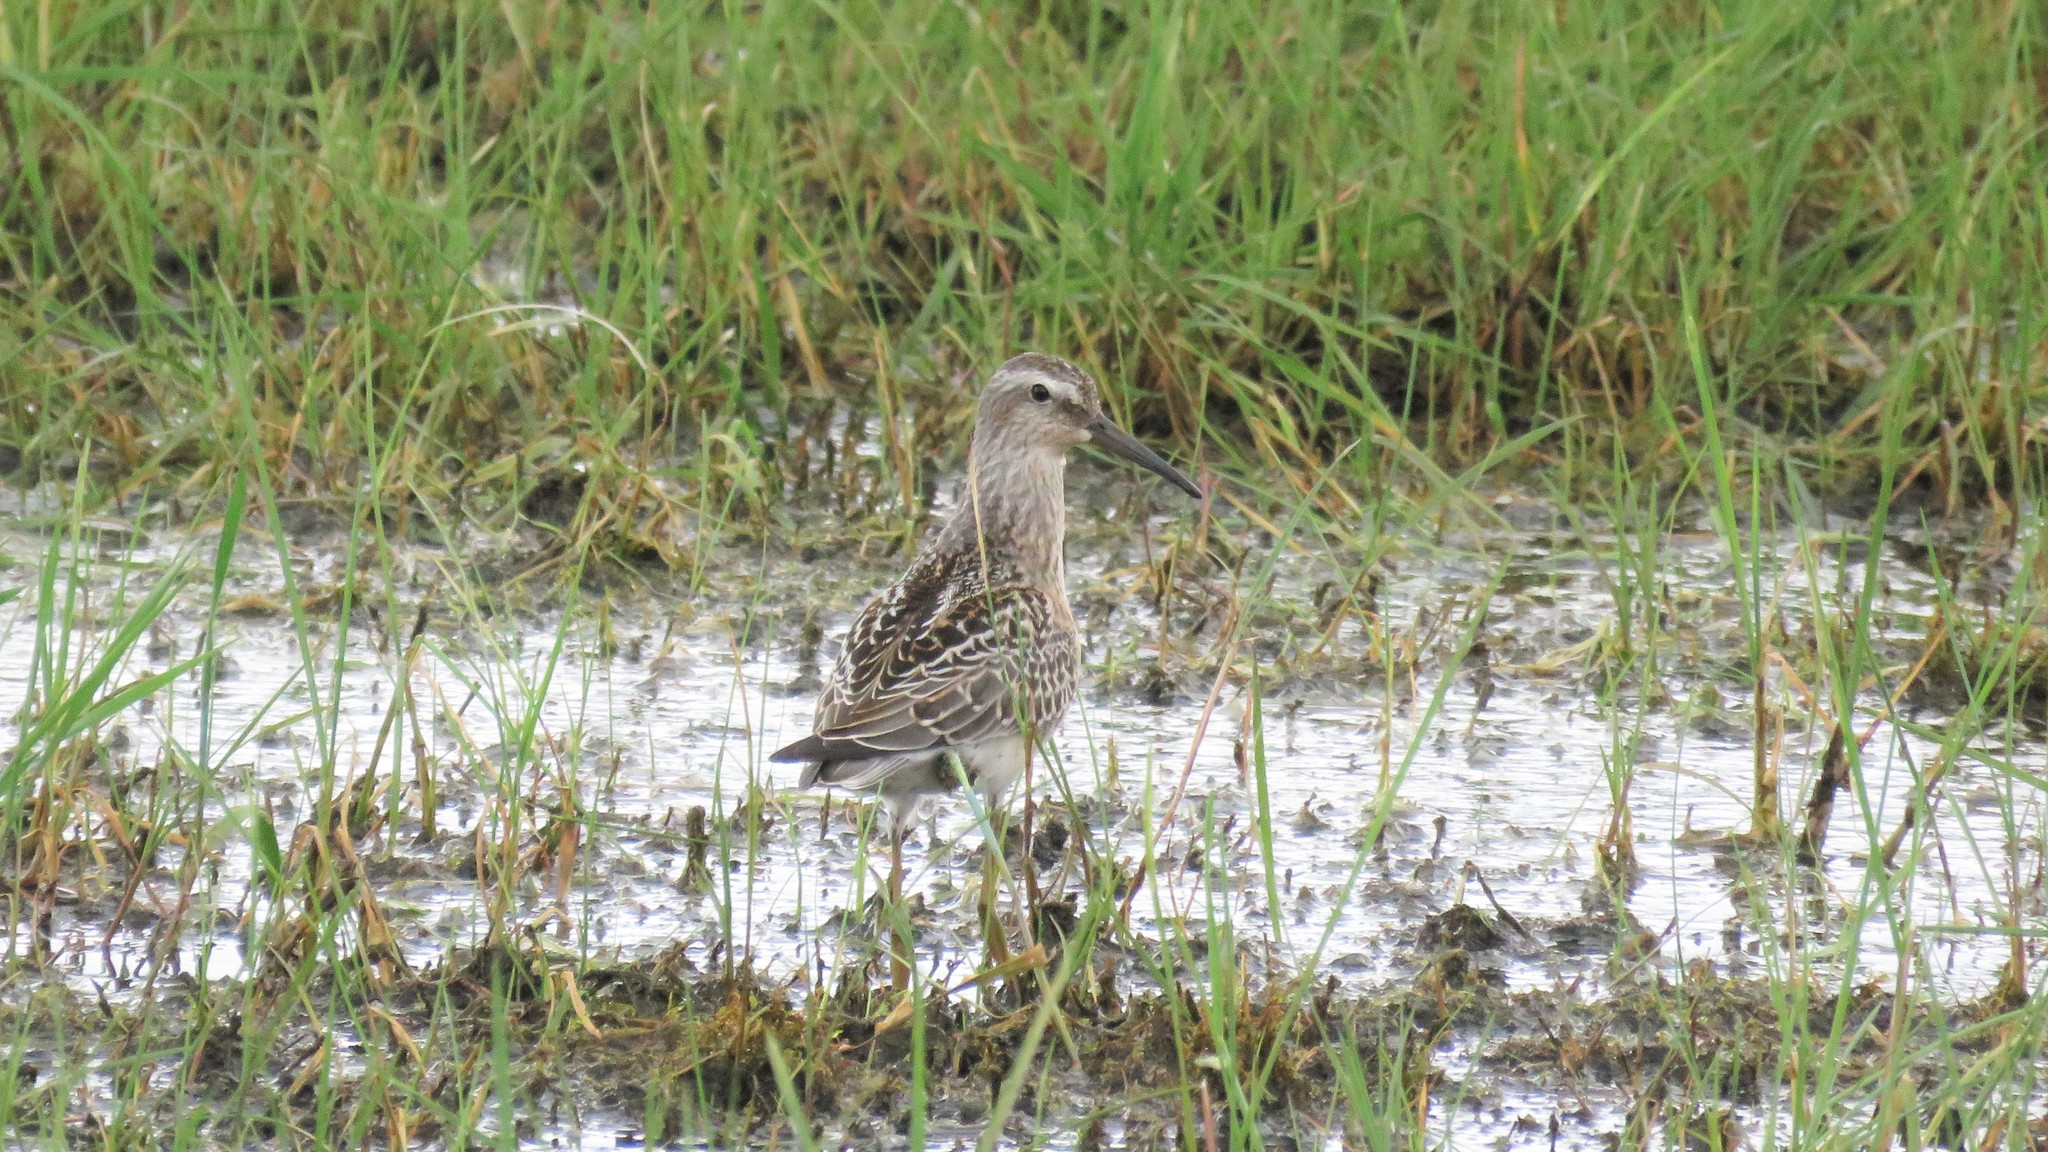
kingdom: Animalia
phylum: Chordata
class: Aves
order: Charadriiformes
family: Scolopacidae
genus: Calidris
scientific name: Calidris himantopus
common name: Stilt sandpiper
